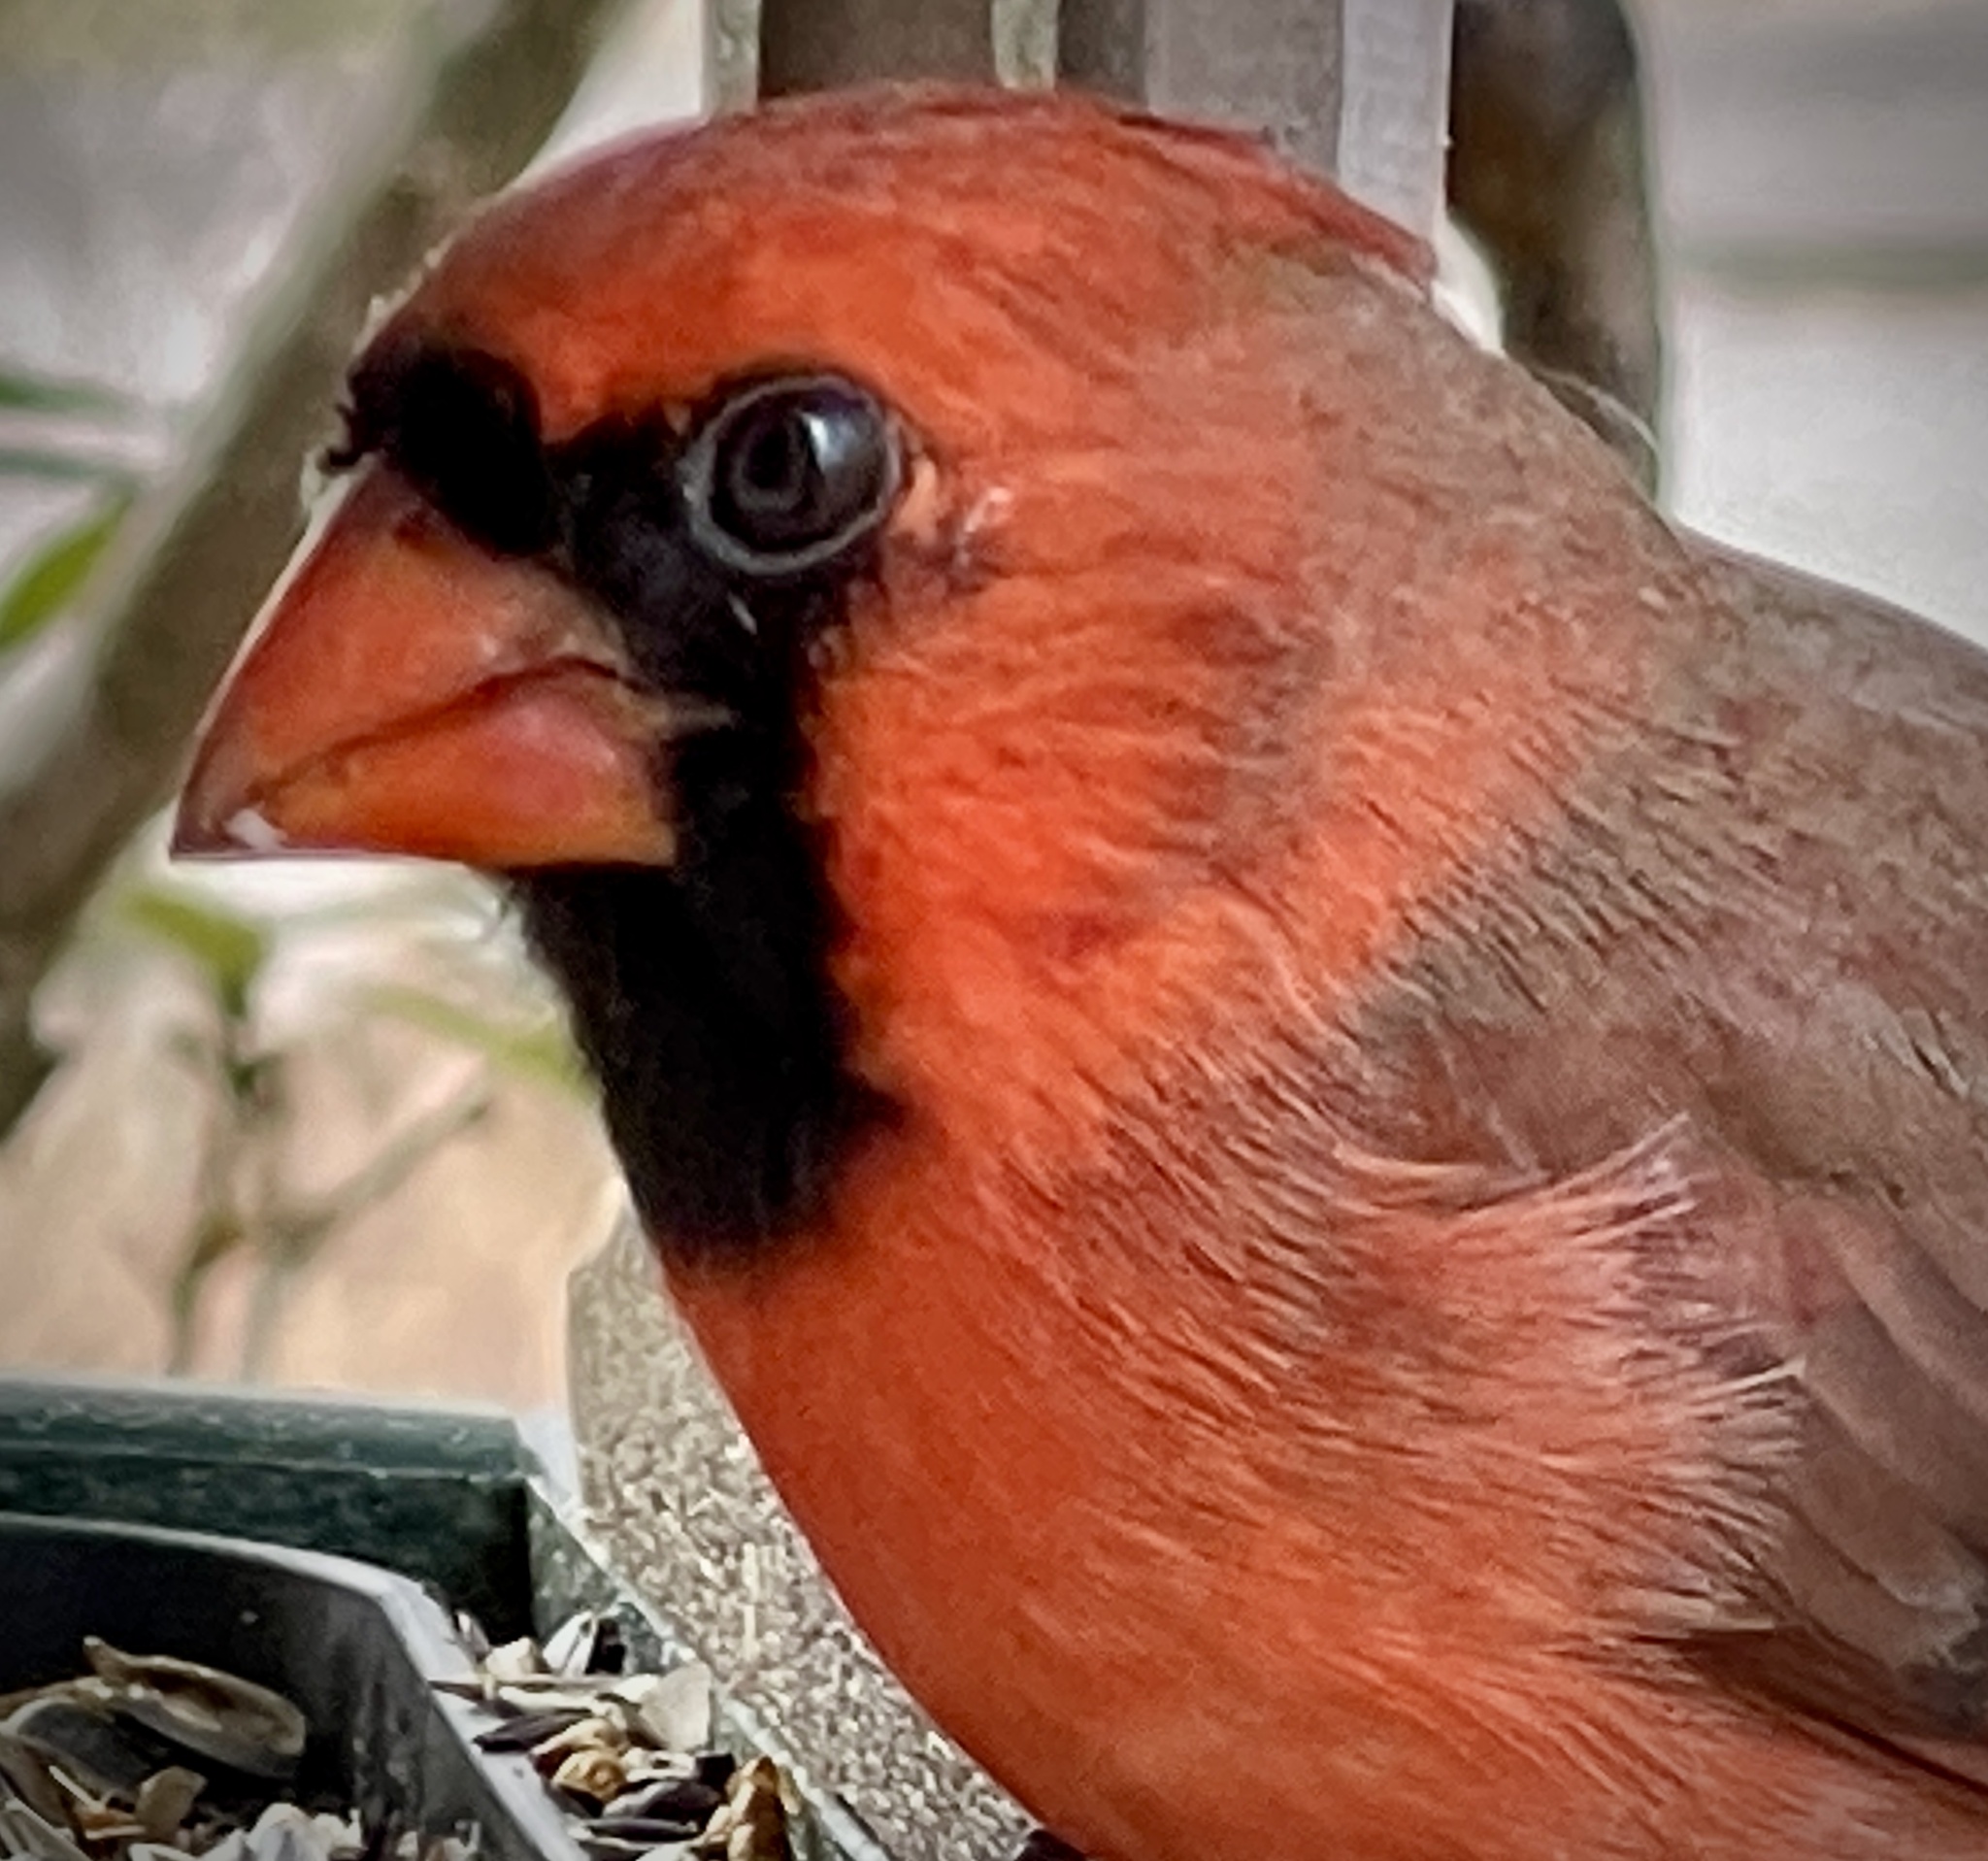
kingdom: Animalia
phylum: Chordata
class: Aves
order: Passeriformes
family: Cardinalidae
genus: Cardinalis
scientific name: Cardinalis cardinalis
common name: Northern cardinal
